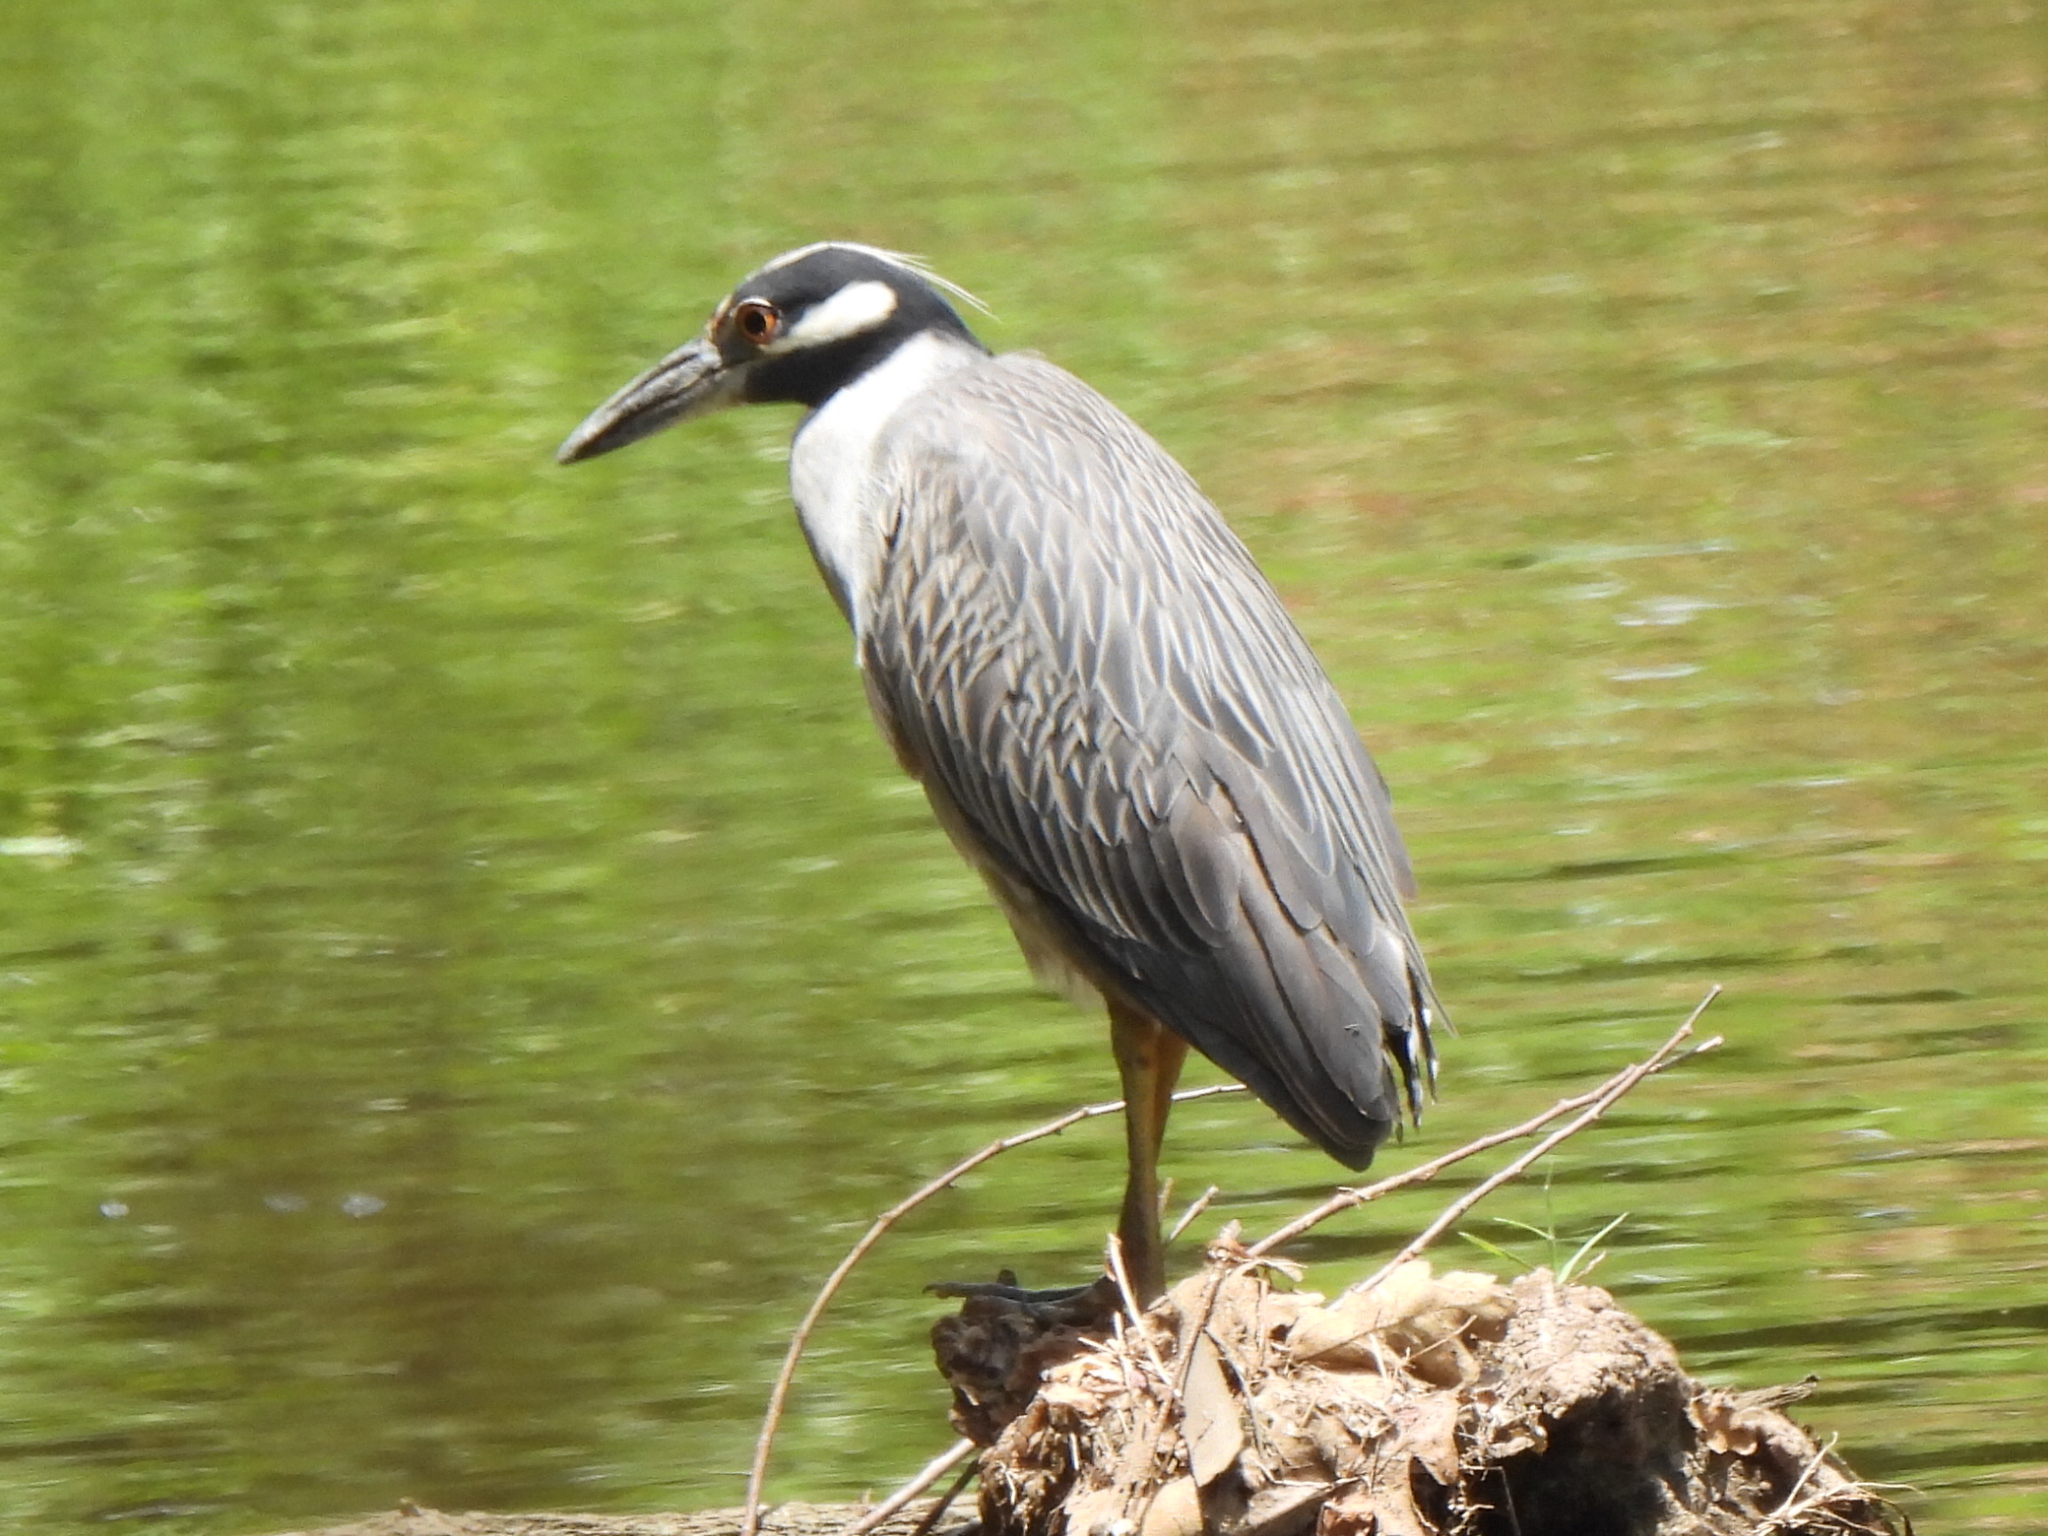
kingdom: Animalia
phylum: Chordata
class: Aves
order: Pelecaniformes
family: Ardeidae
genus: Nyctanassa
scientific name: Nyctanassa violacea
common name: Yellow-crowned night heron
